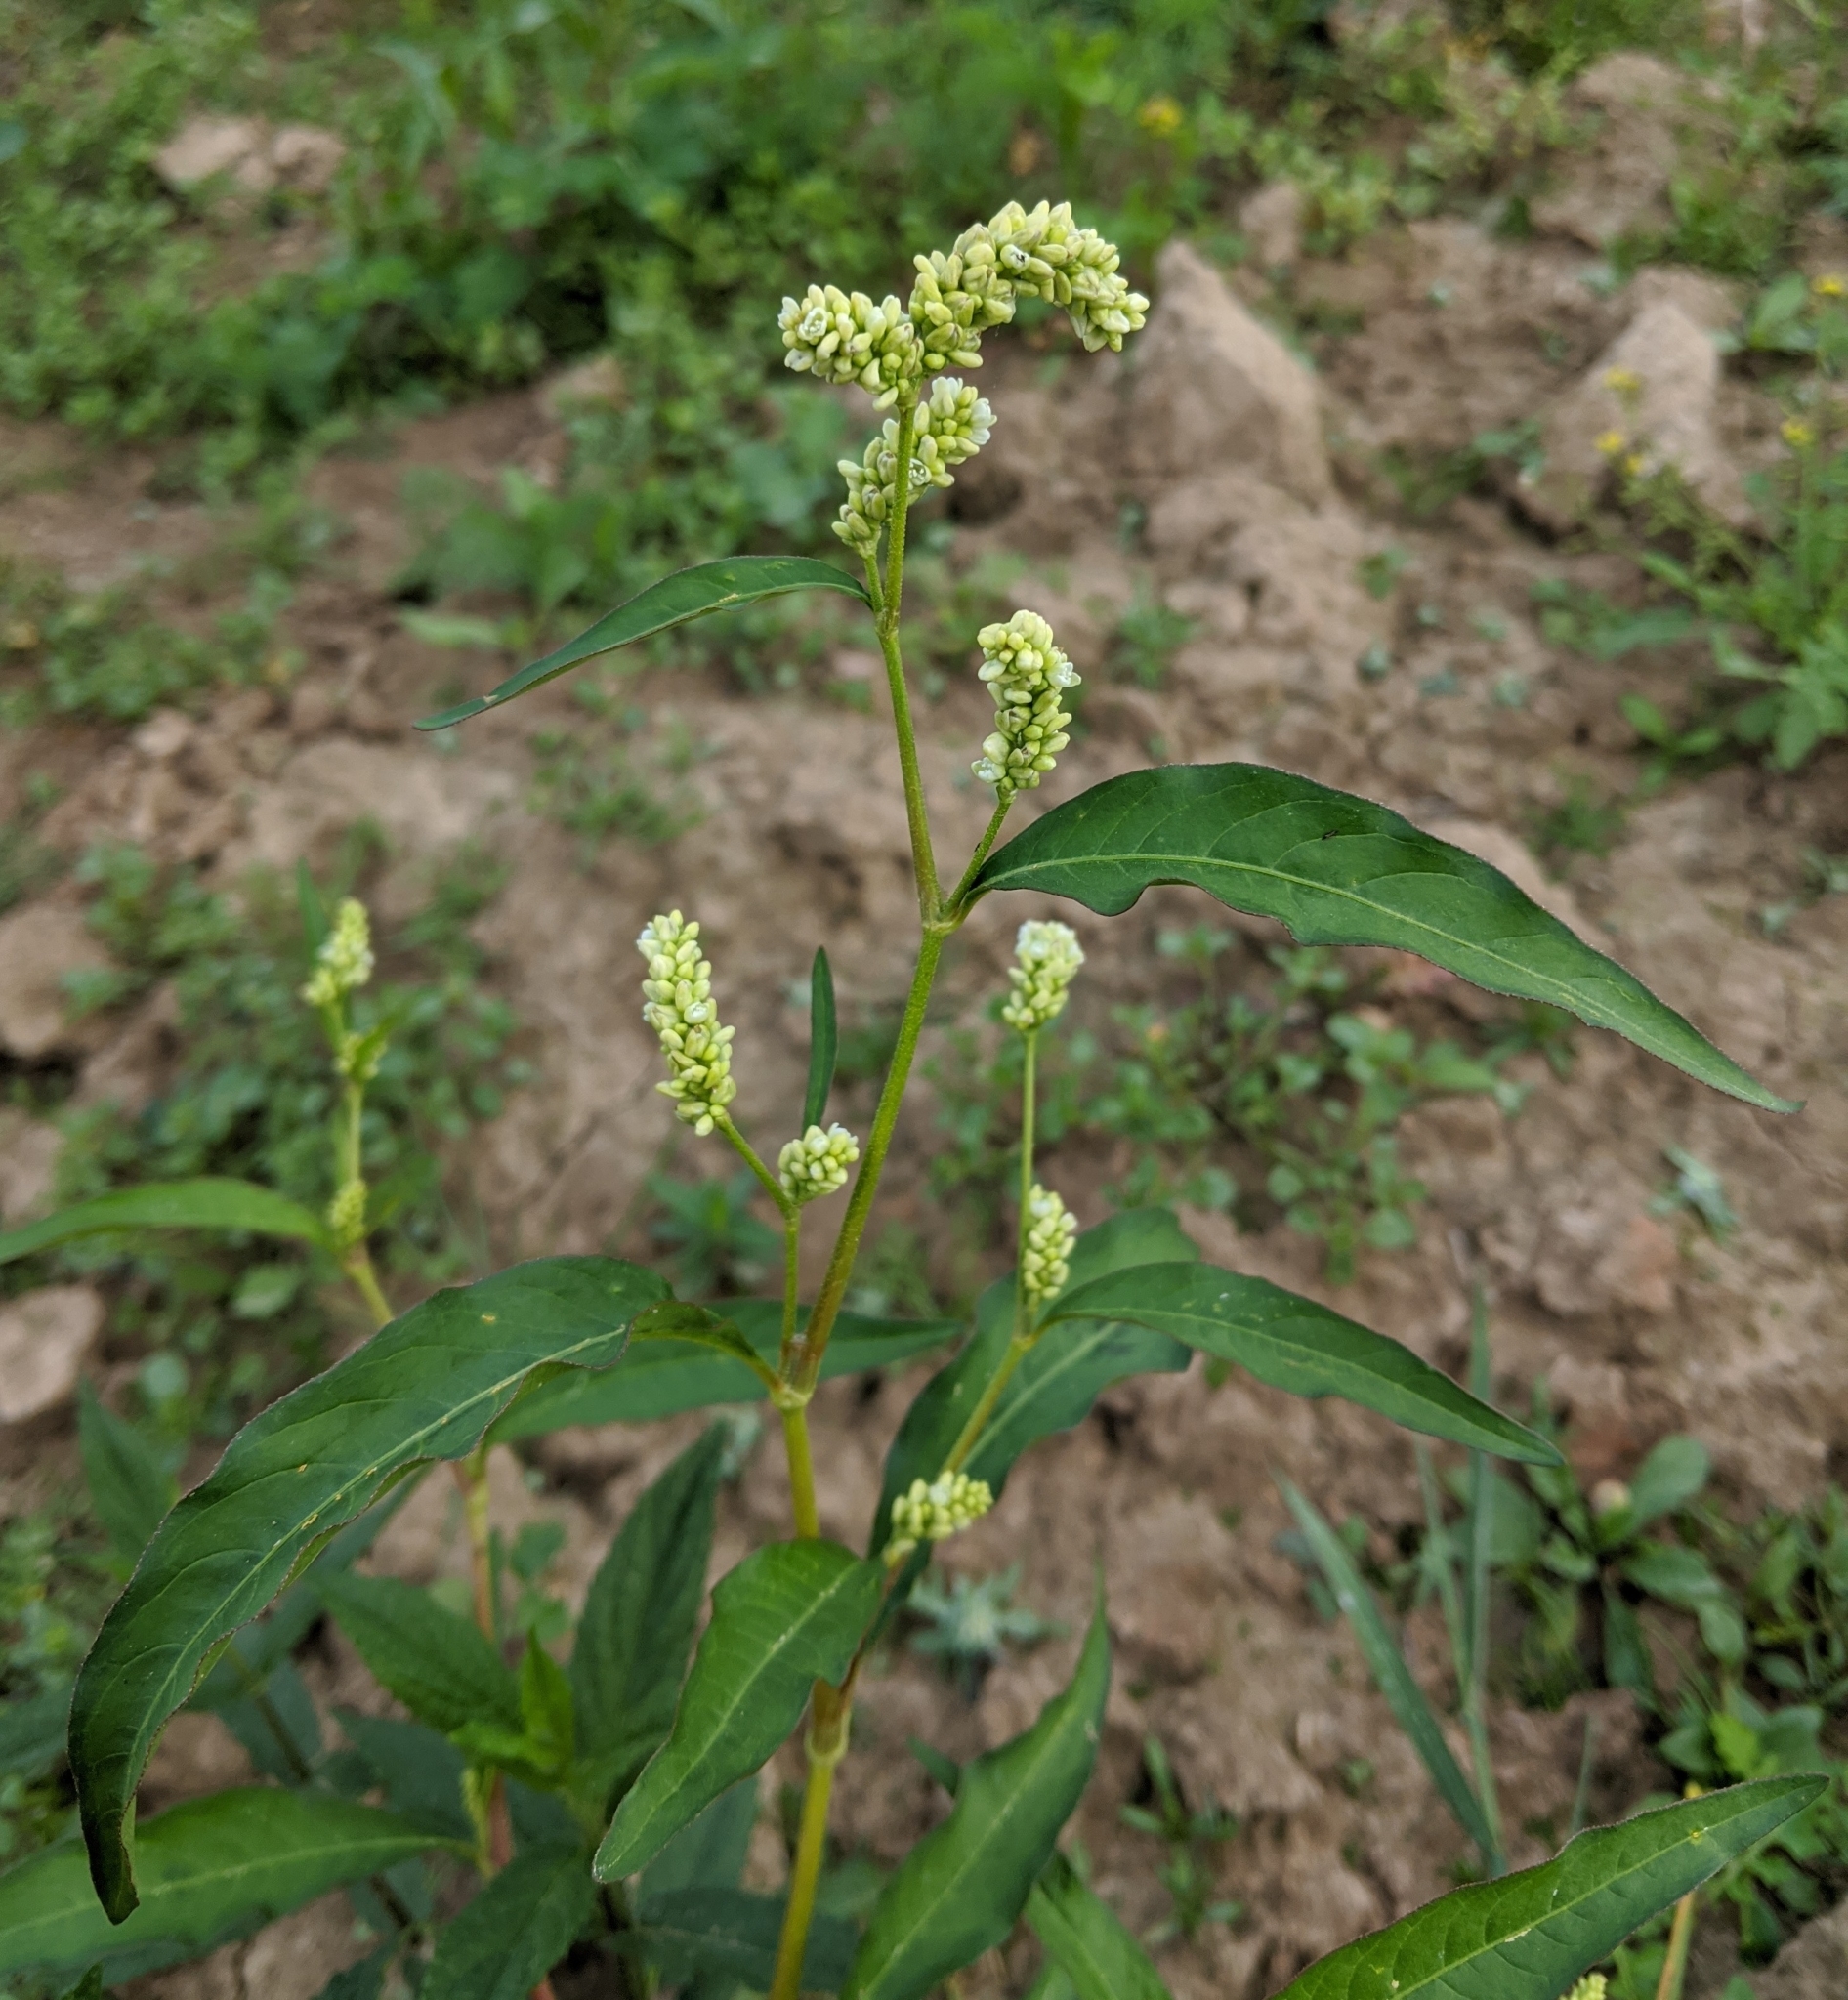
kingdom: Plantae
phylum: Tracheophyta
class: Magnoliopsida
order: Caryophyllales
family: Polygonaceae
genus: Persicaria
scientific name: Persicaria lapathifolia
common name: Curlytop knotweed
